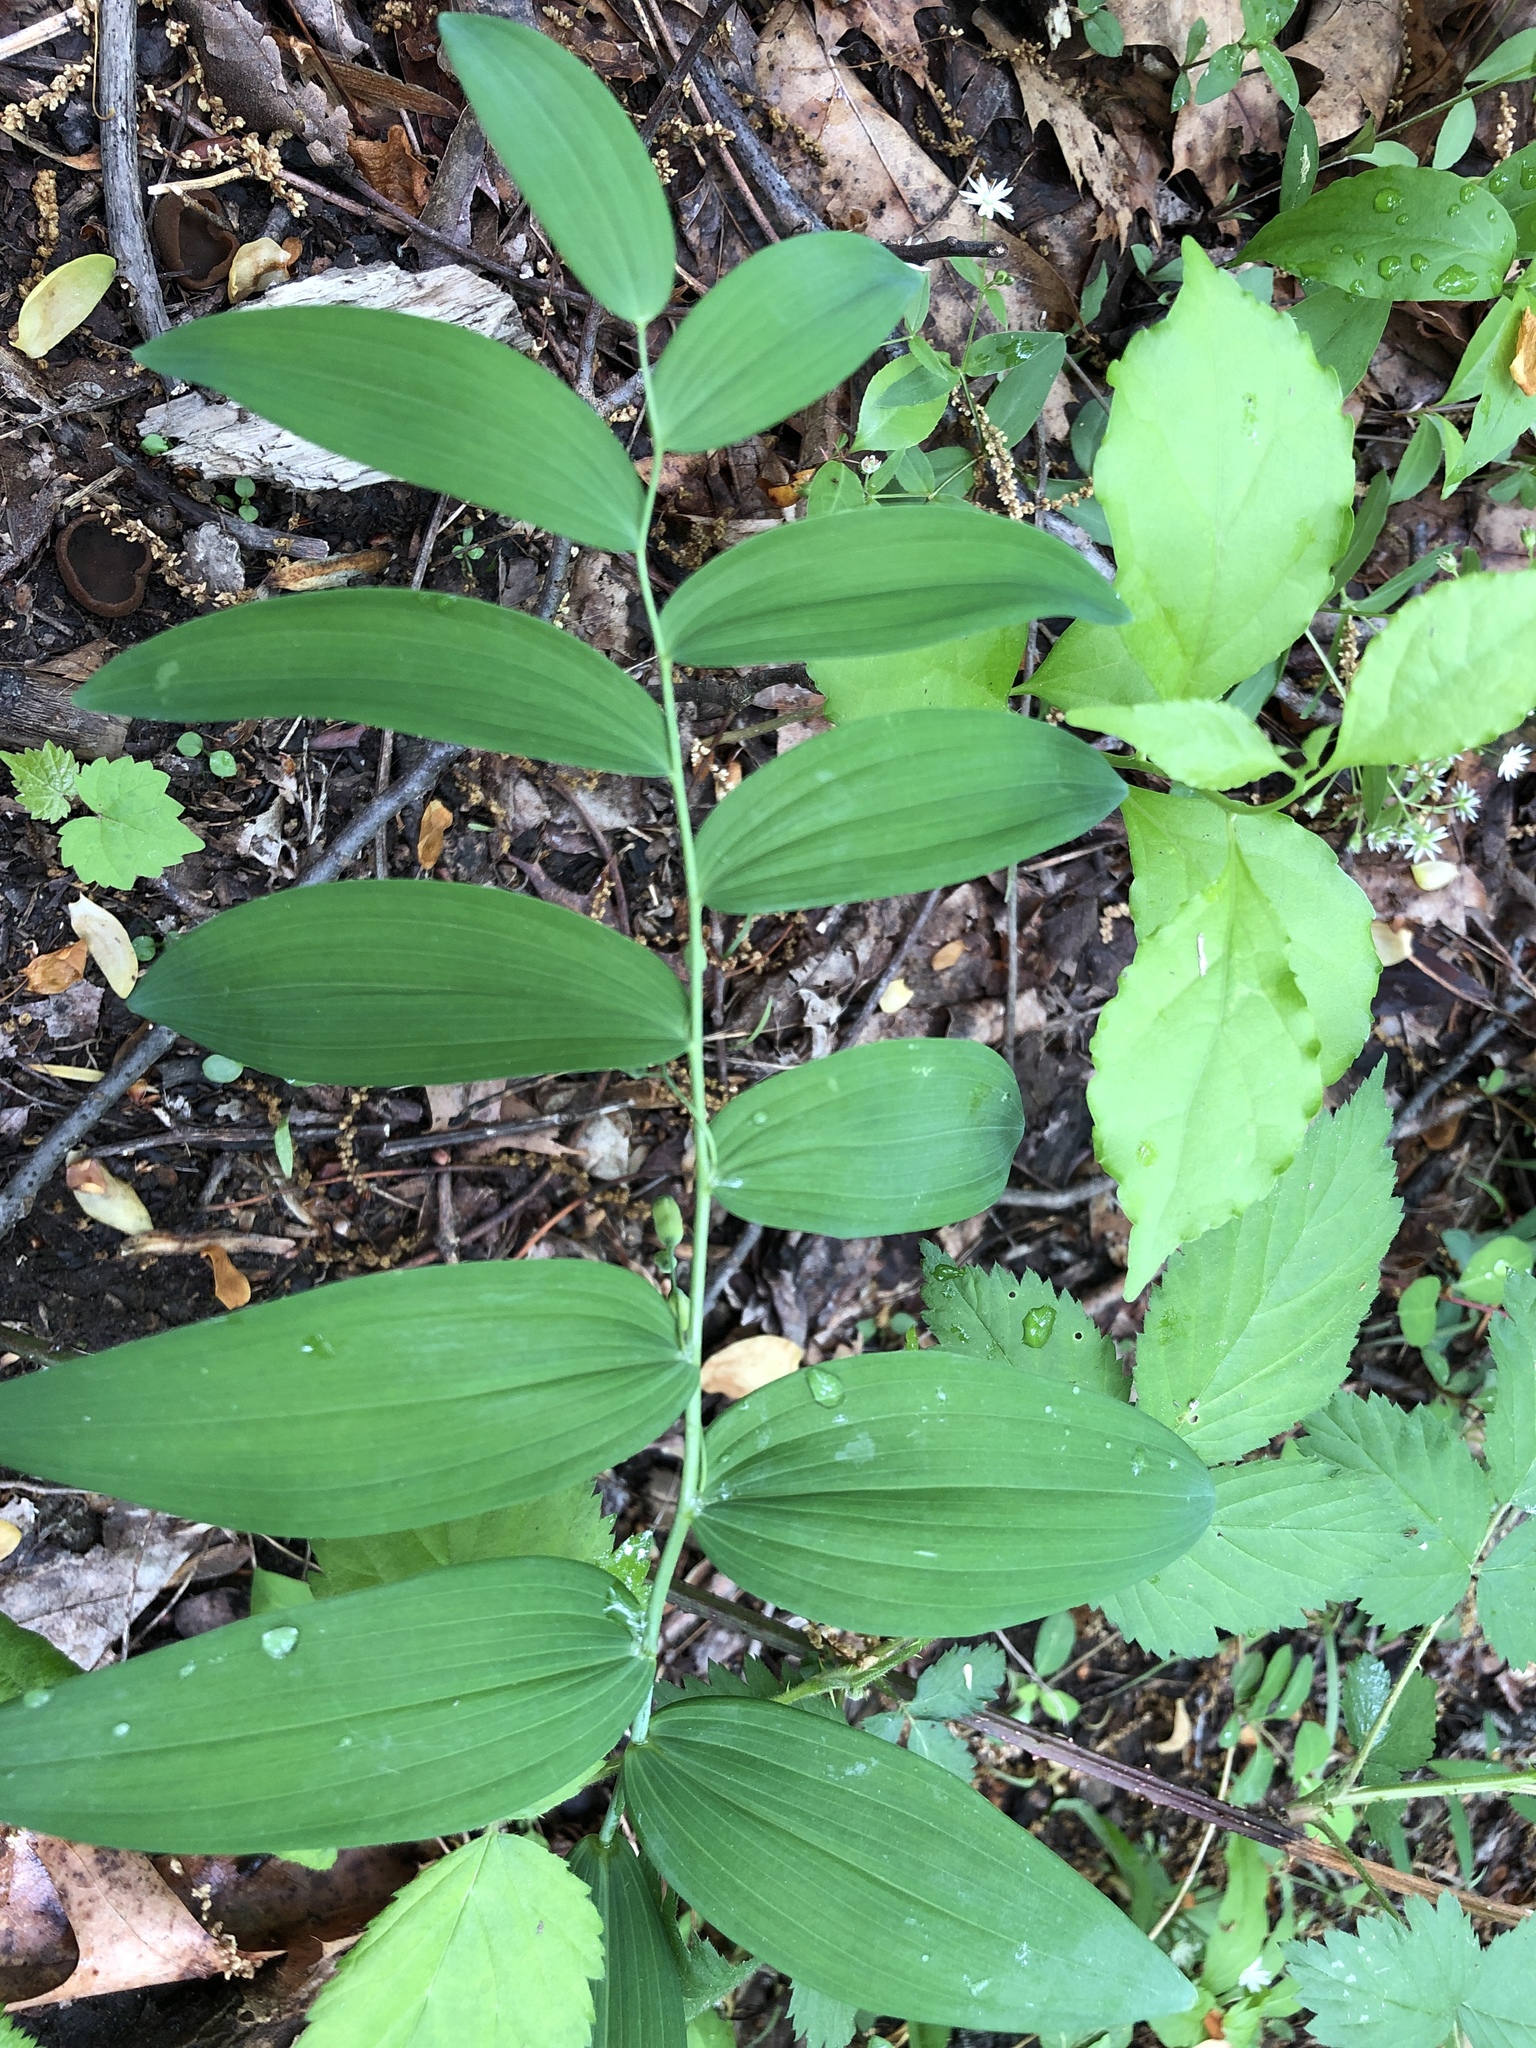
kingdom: Plantae
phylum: Tracheophyta
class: Liliopsida
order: Asparagales
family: Asparagaceae
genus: Polygonatum
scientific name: Polygonatum biflorum
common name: American solomon's-seal
